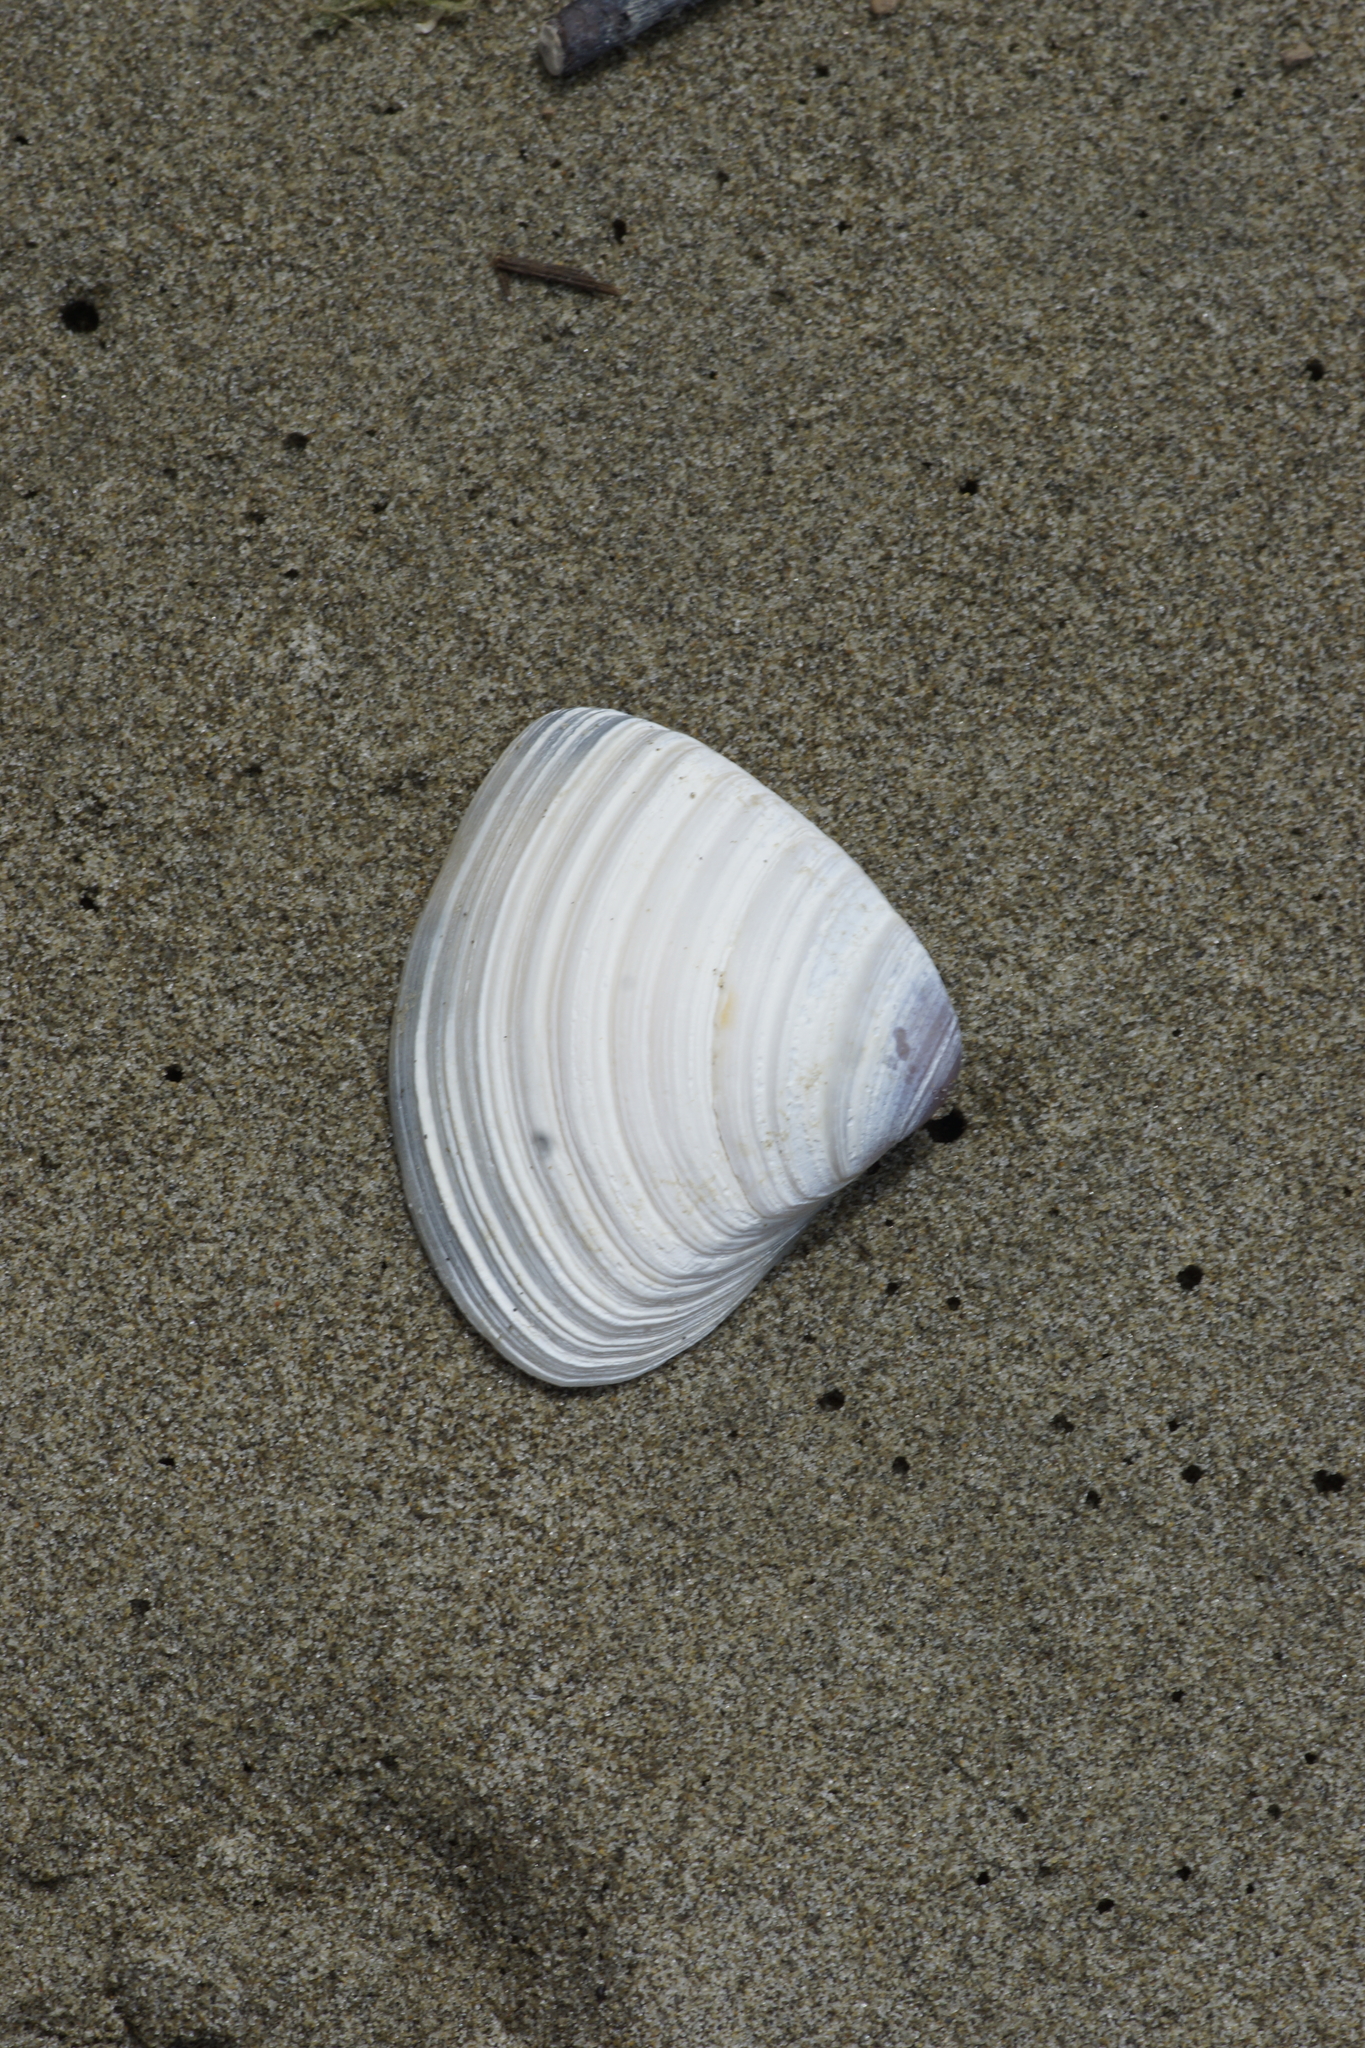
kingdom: Animalia
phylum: Mollusca
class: Bivalvia
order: Venerida
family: Mactridae
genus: Crassula
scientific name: Crassula aequilatera
